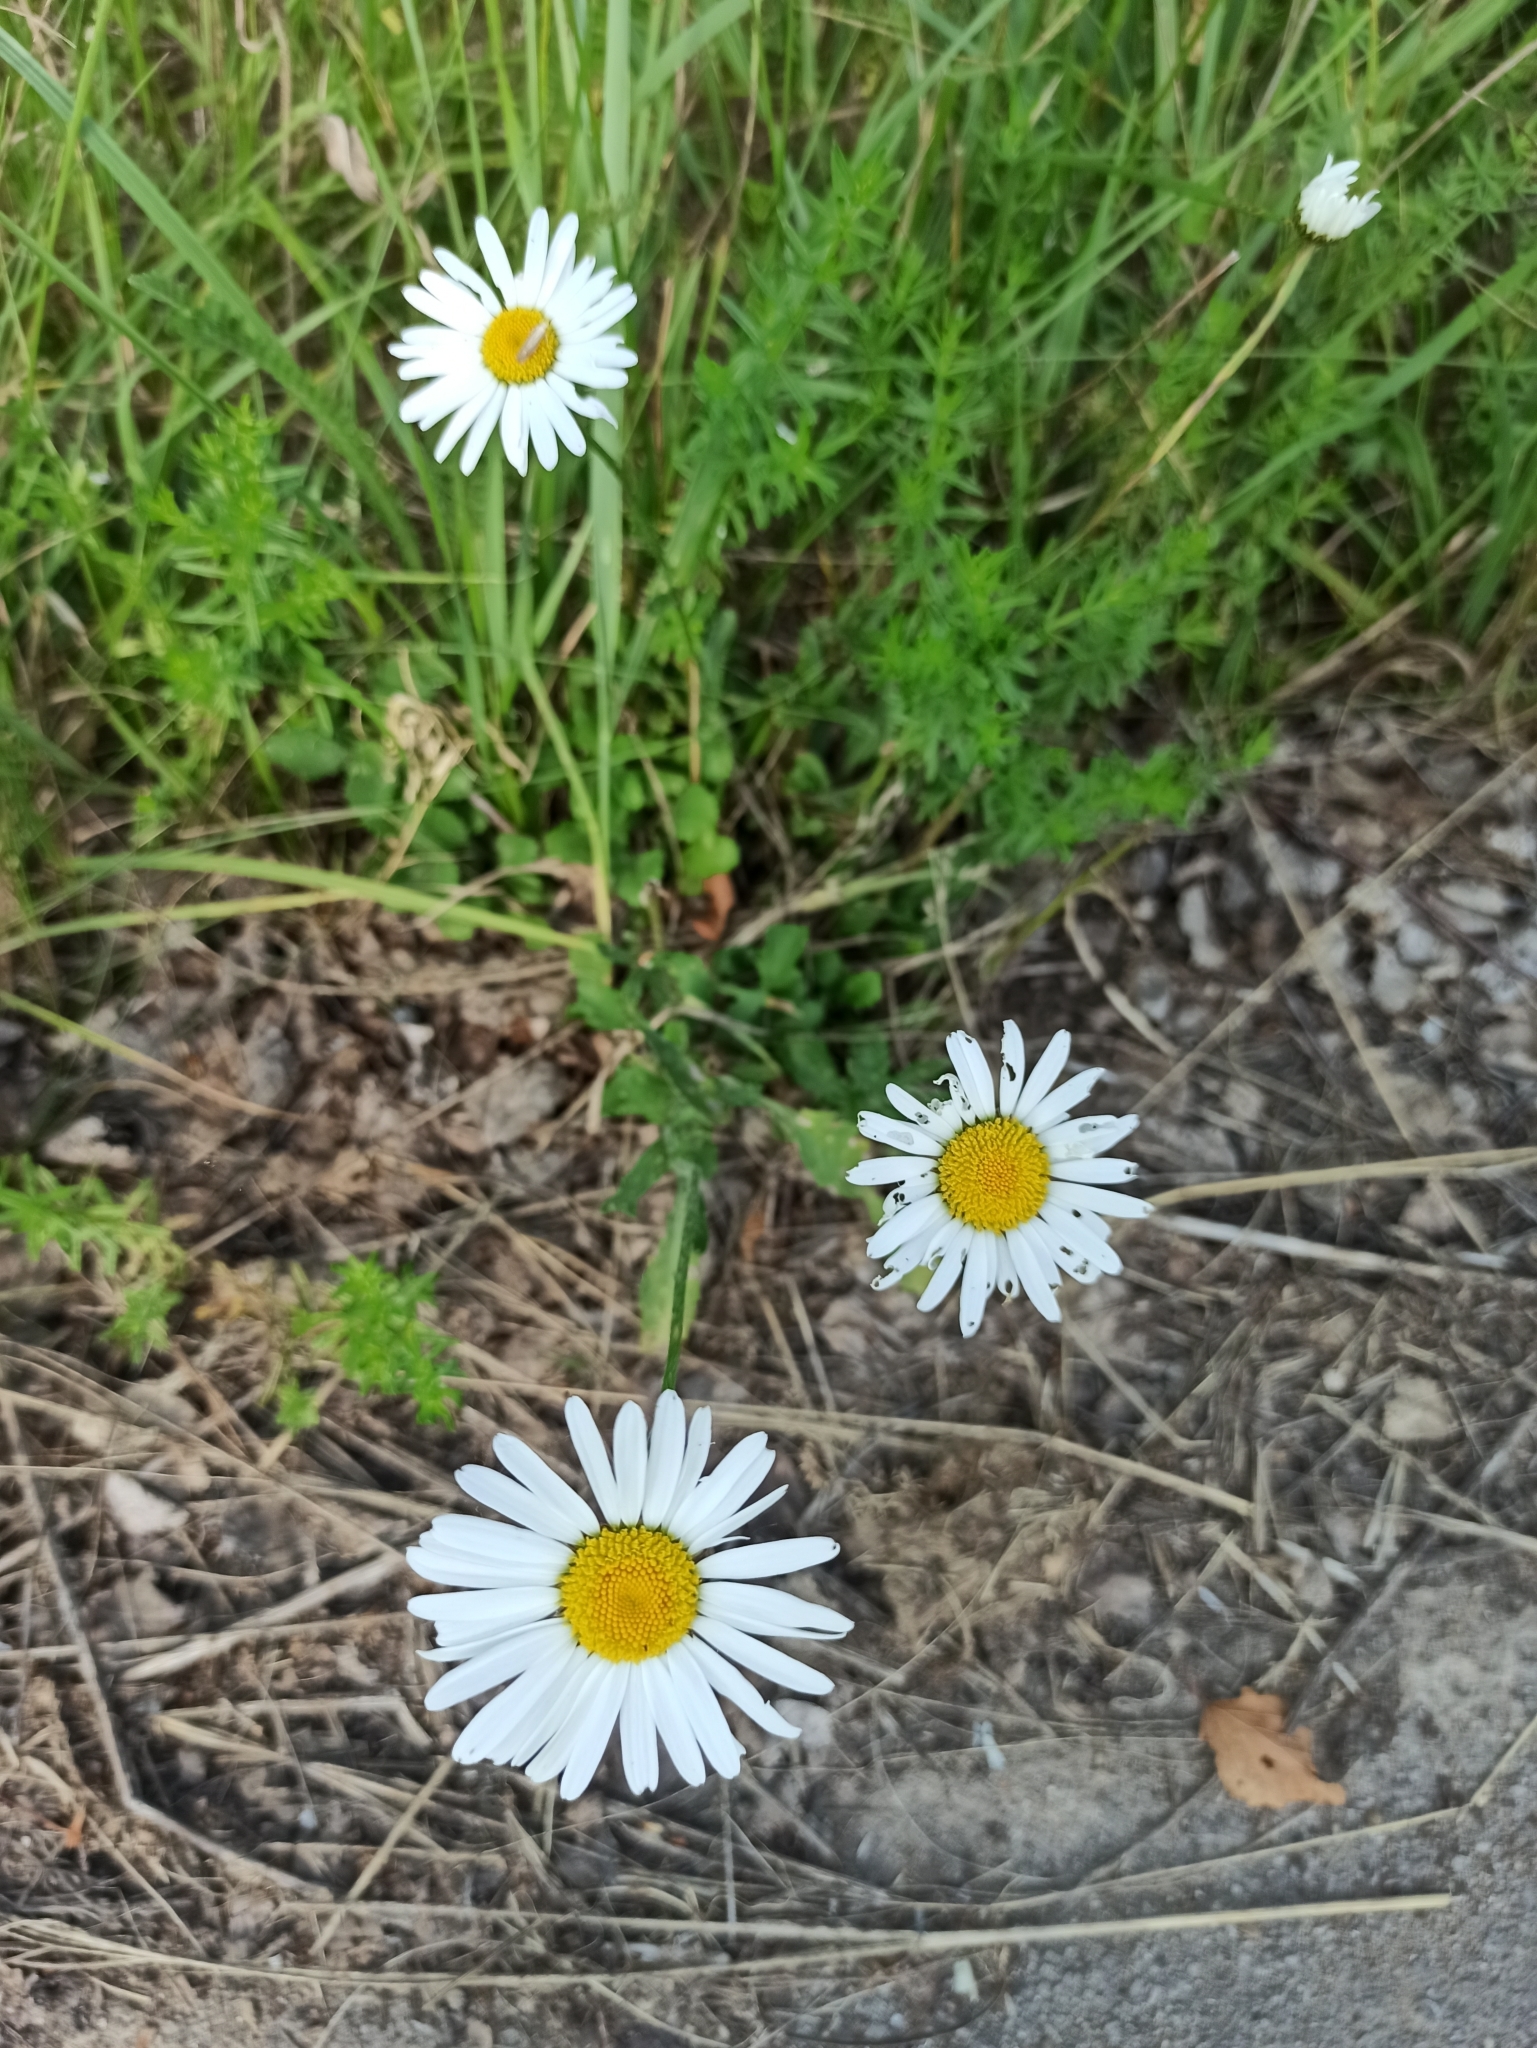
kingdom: Plantae
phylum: Tracheophyta
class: Magnoliopsida
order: Asterales
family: Asteraceae
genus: Leucanthemum
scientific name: Leucanthemum vulgare
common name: Oxeye daisy
